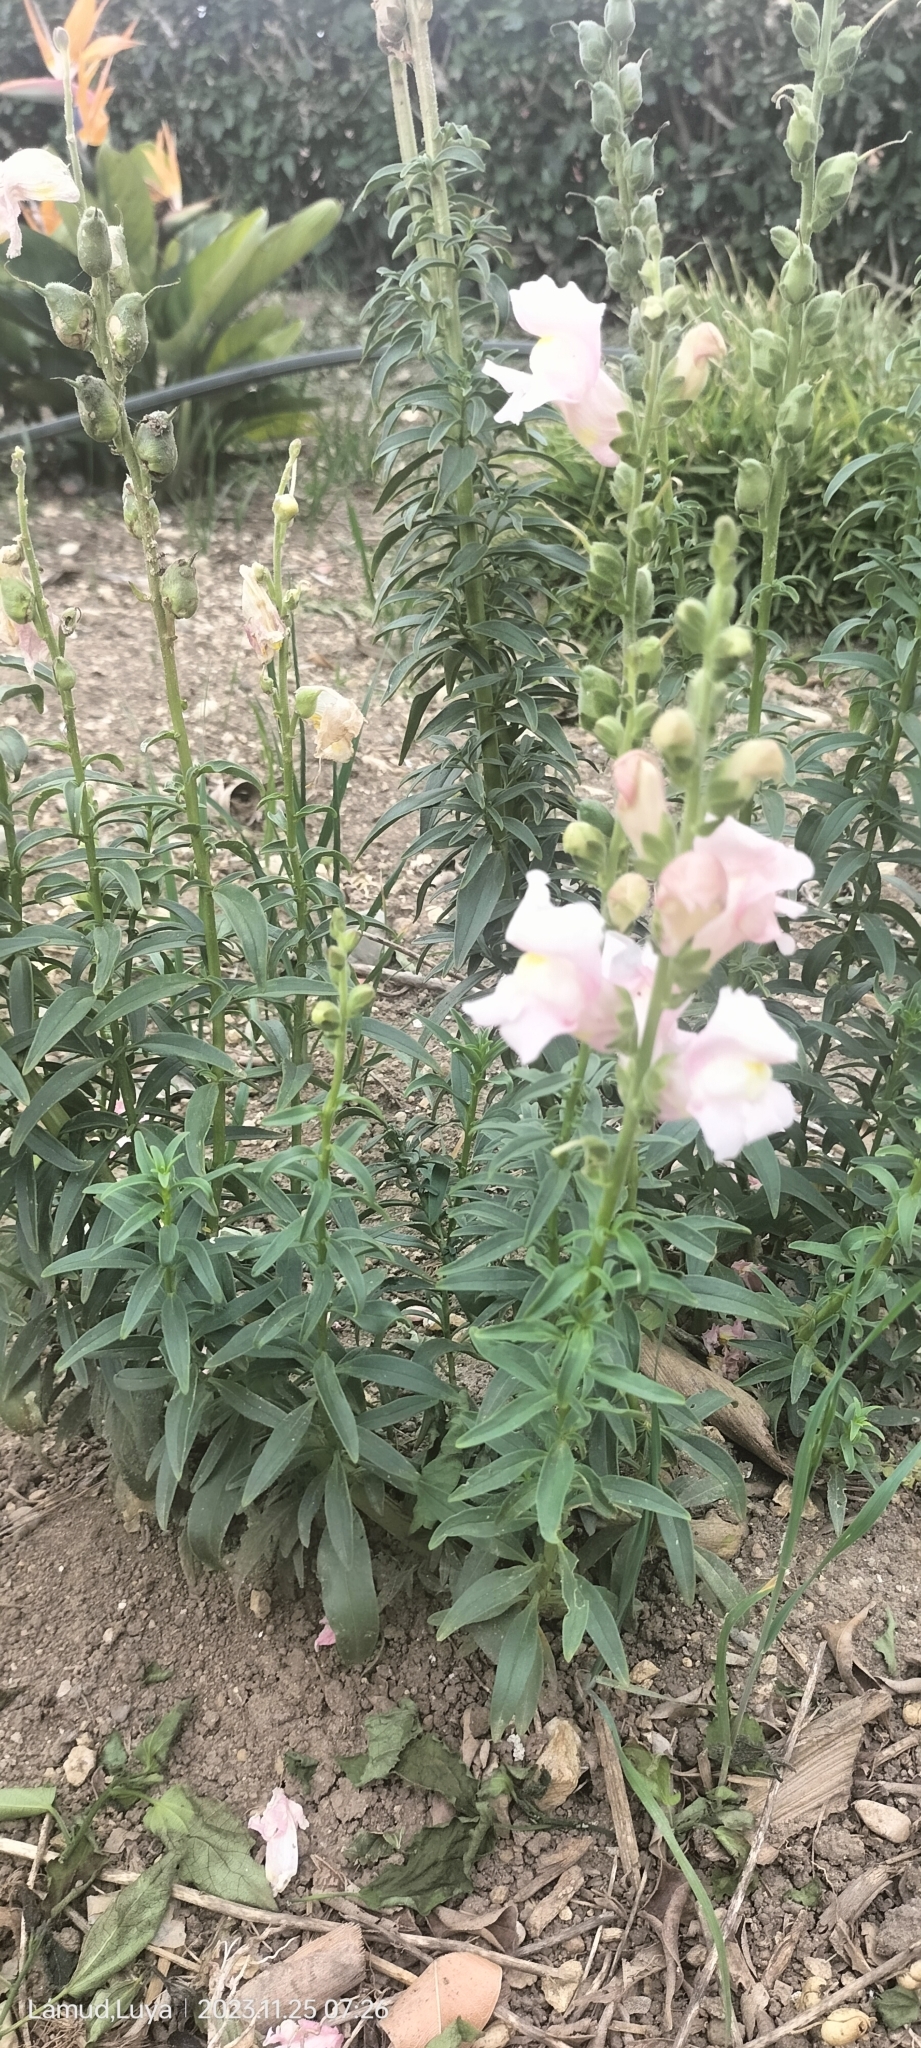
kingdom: Plantae
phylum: Tracheophyta
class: Magnoliopsida
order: Lamiales
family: Plantaginaceae
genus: Antirrhinum
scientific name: Antirrhinum majus
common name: Snapdragon
